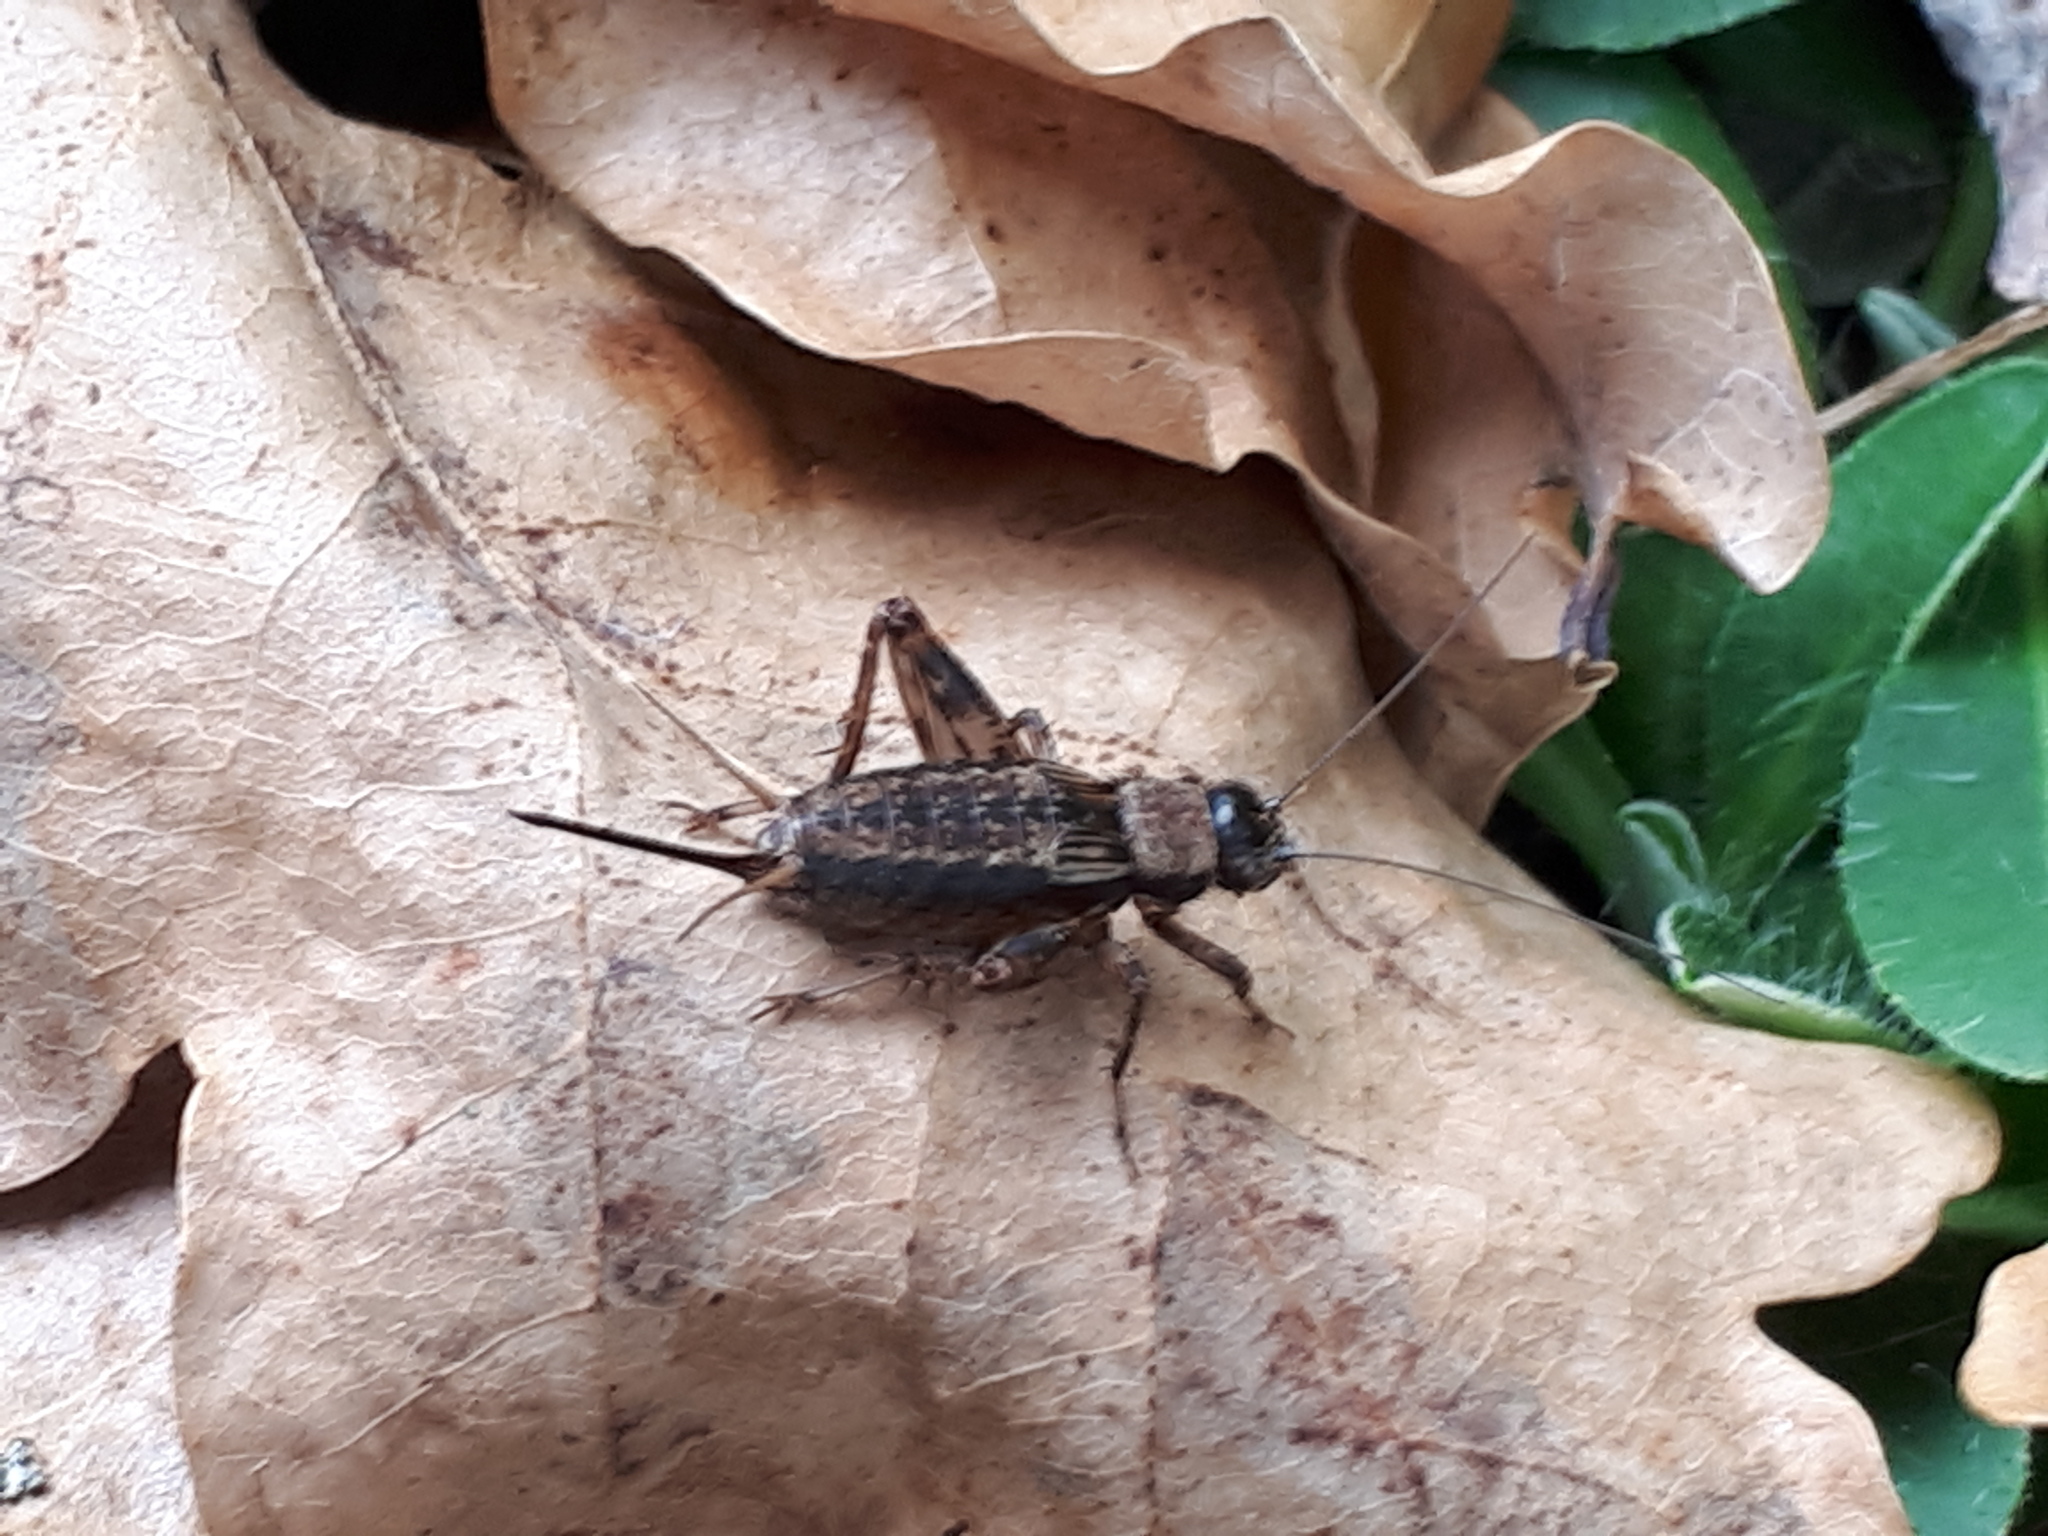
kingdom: Animalia
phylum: Arthropoda
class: Insecta
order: Orthoptera
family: Trigonidiidae
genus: Nemobius
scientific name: Nemobius sylvestris
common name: Wood-cricket
